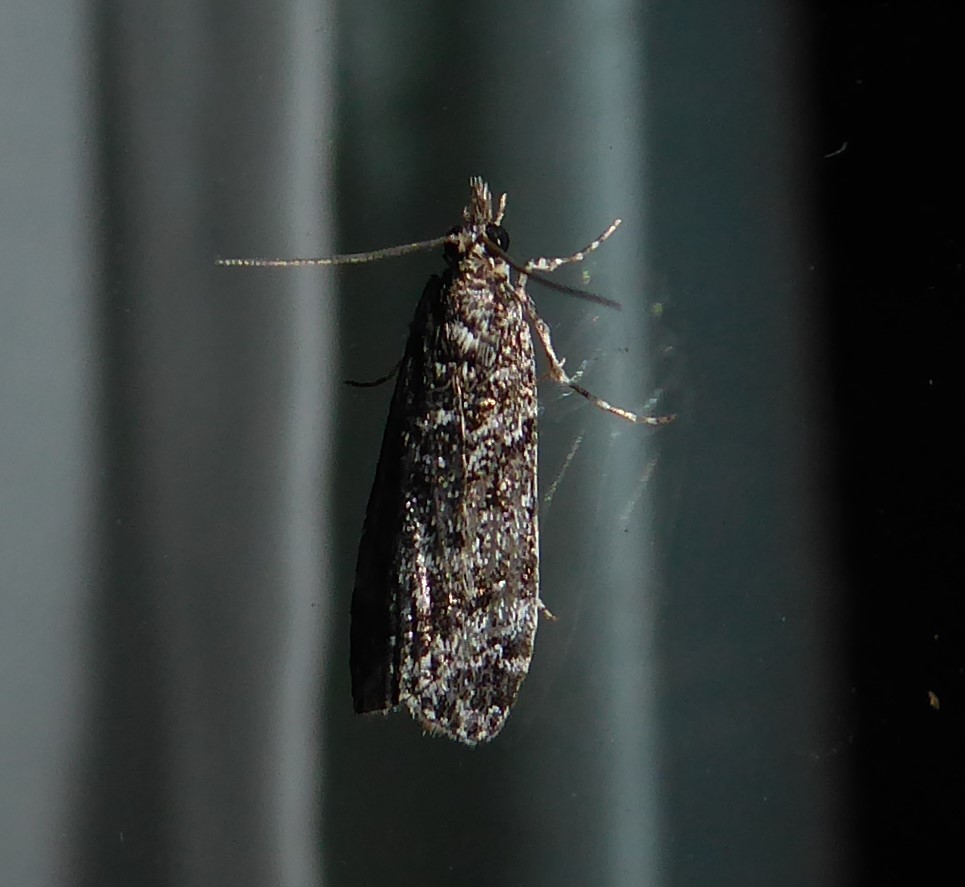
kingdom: Animalia
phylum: Arthropoda
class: Insecta
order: Lepidoptera
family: Crambidae
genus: Eudonia
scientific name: Eudonia philerga
